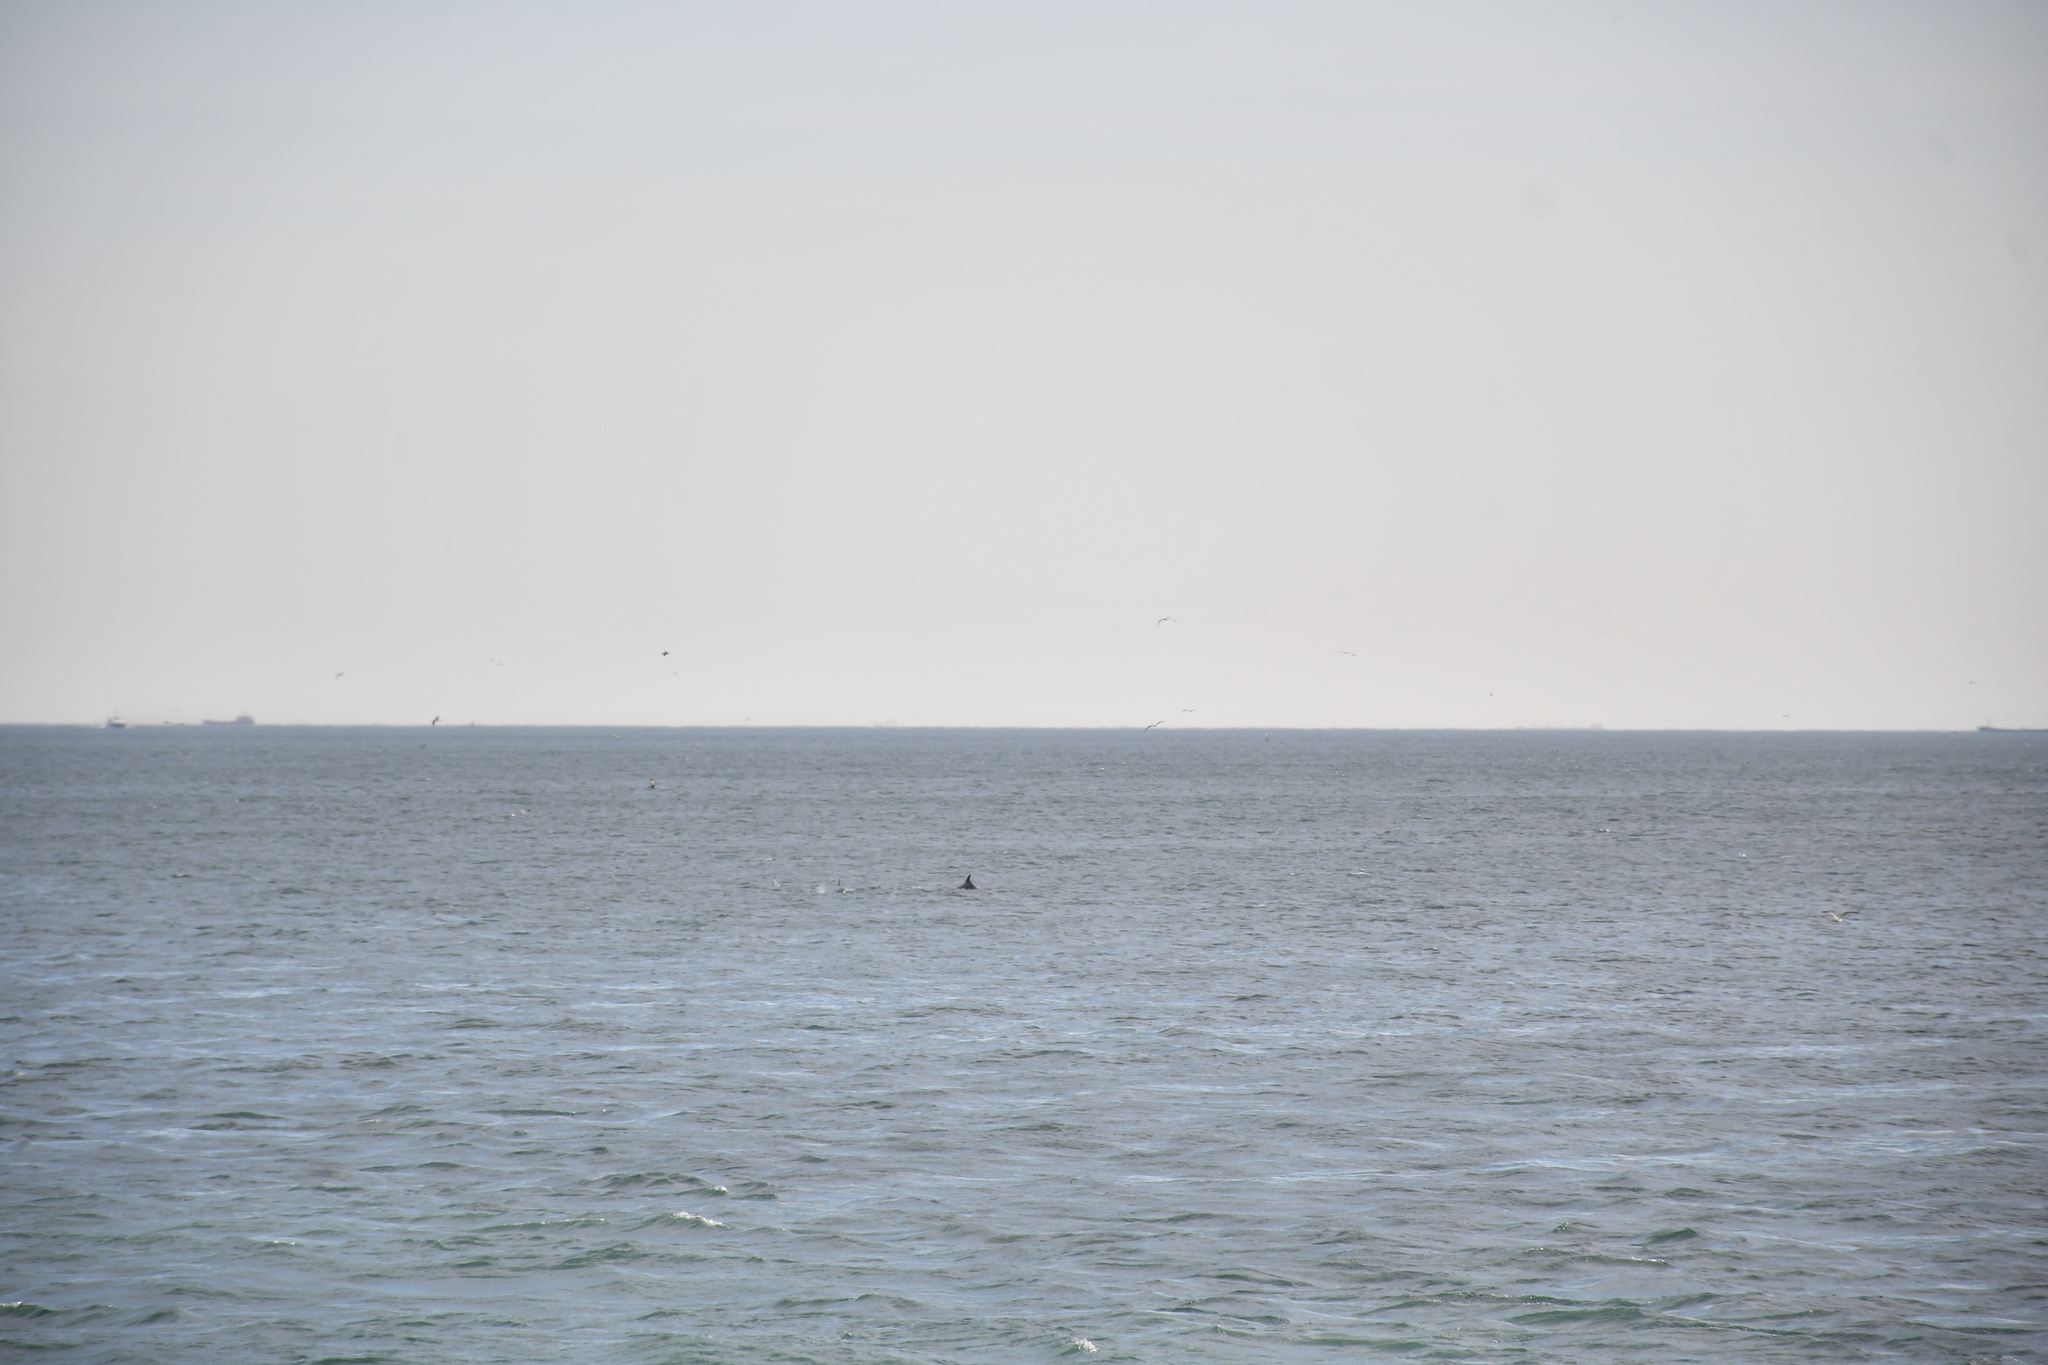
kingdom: Animalia
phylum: Chordata
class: Mammalia
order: Cetacea
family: Delphinidae
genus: Tursiops
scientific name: Tursiops truncatus
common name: Bottlenose dolphin
